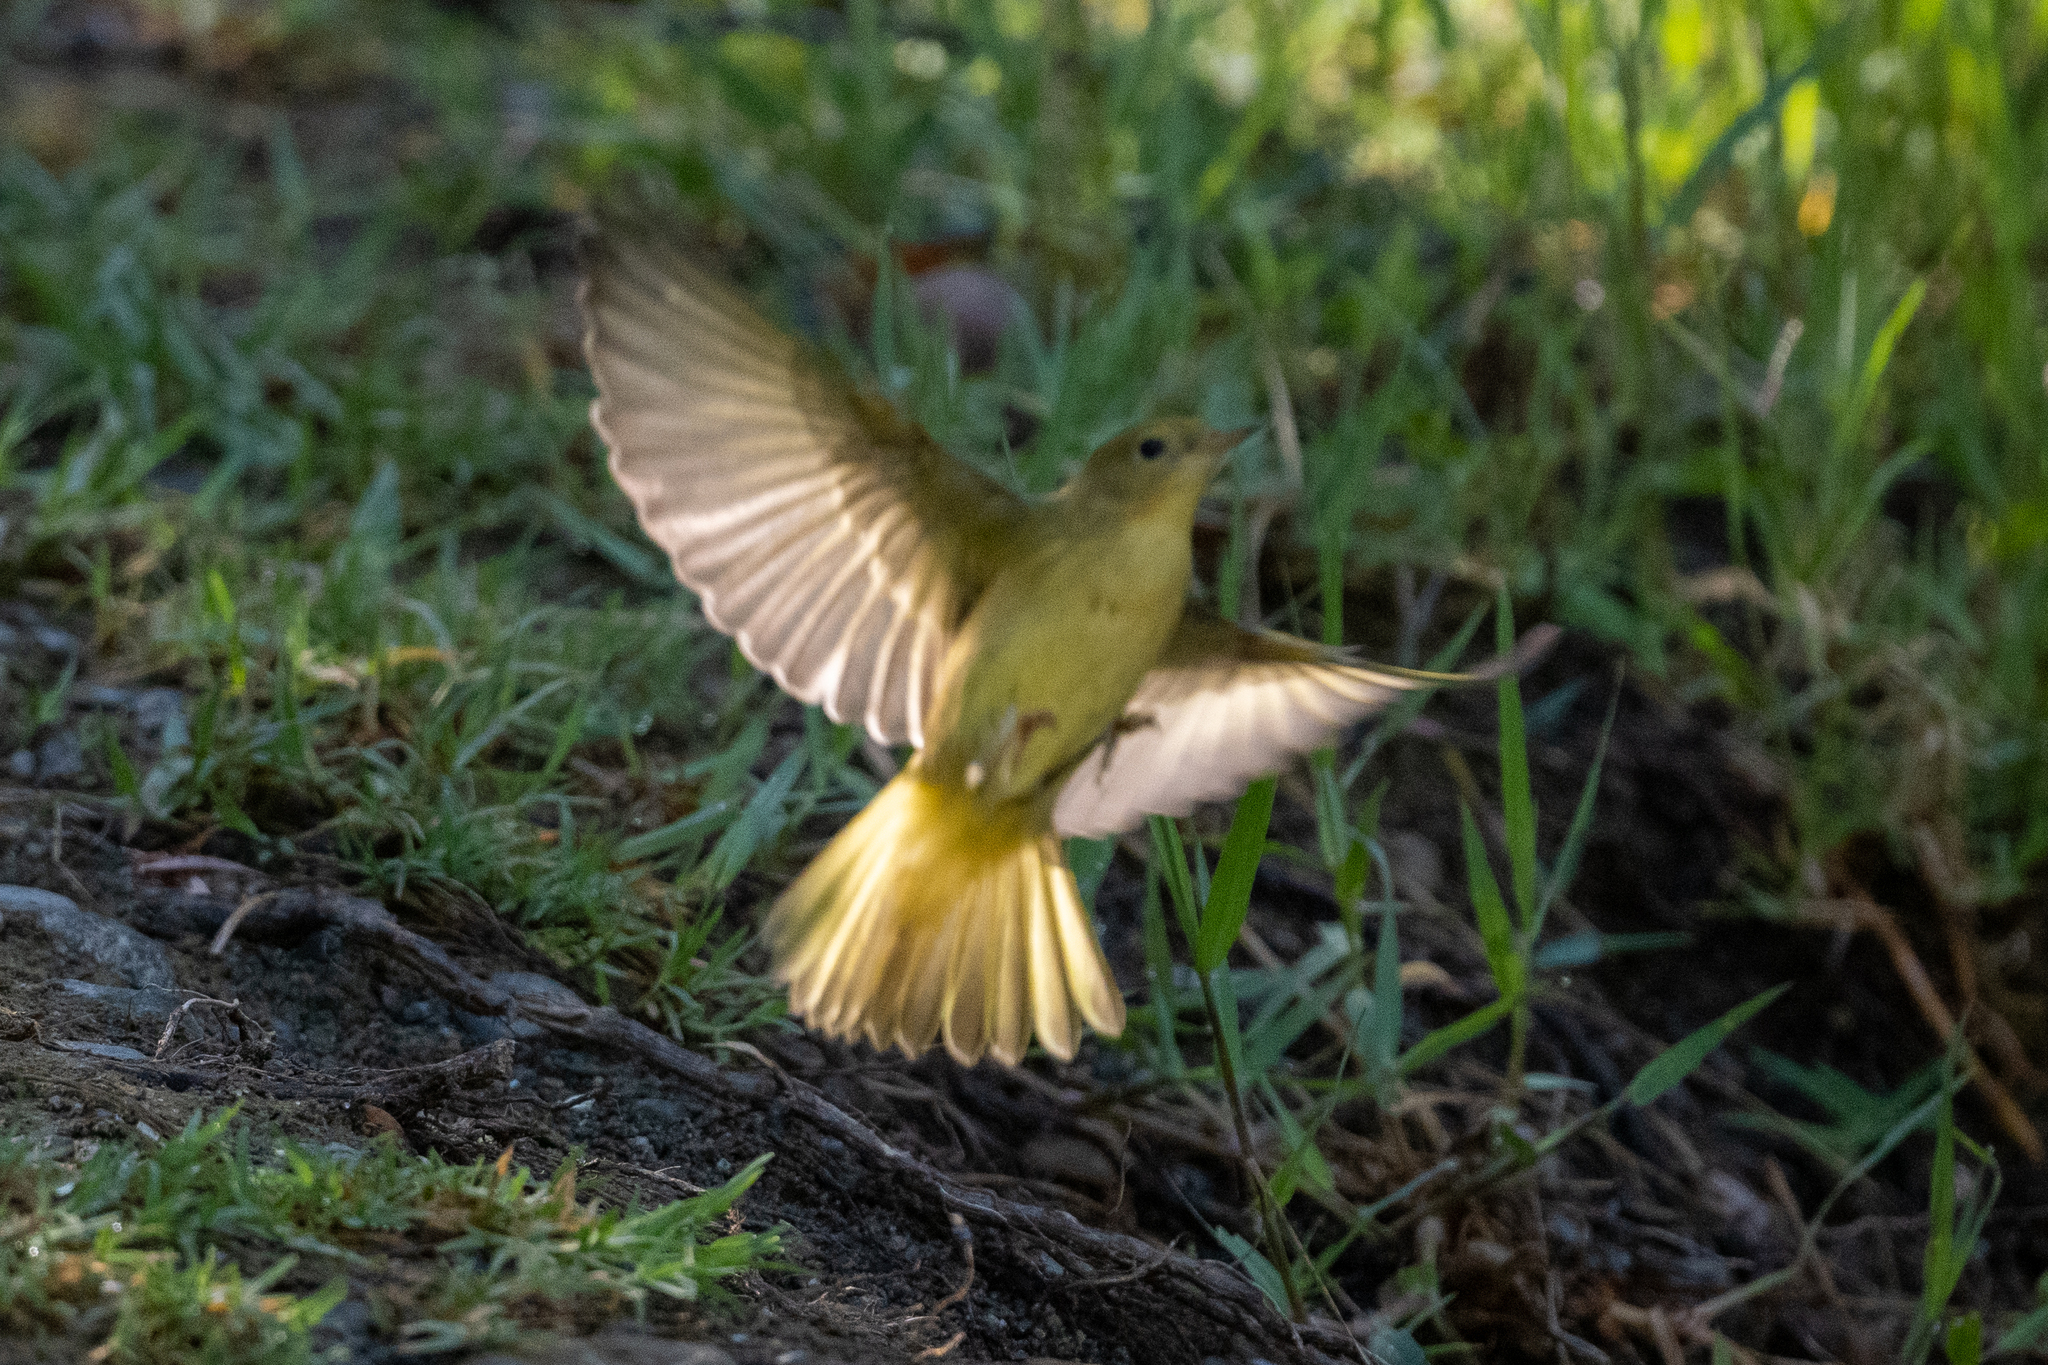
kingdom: Animalia
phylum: Chordata
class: Aves
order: Passeriformes
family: Parulidae
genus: Setophaga
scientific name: Setophaga petechia
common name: Yellow warbler
